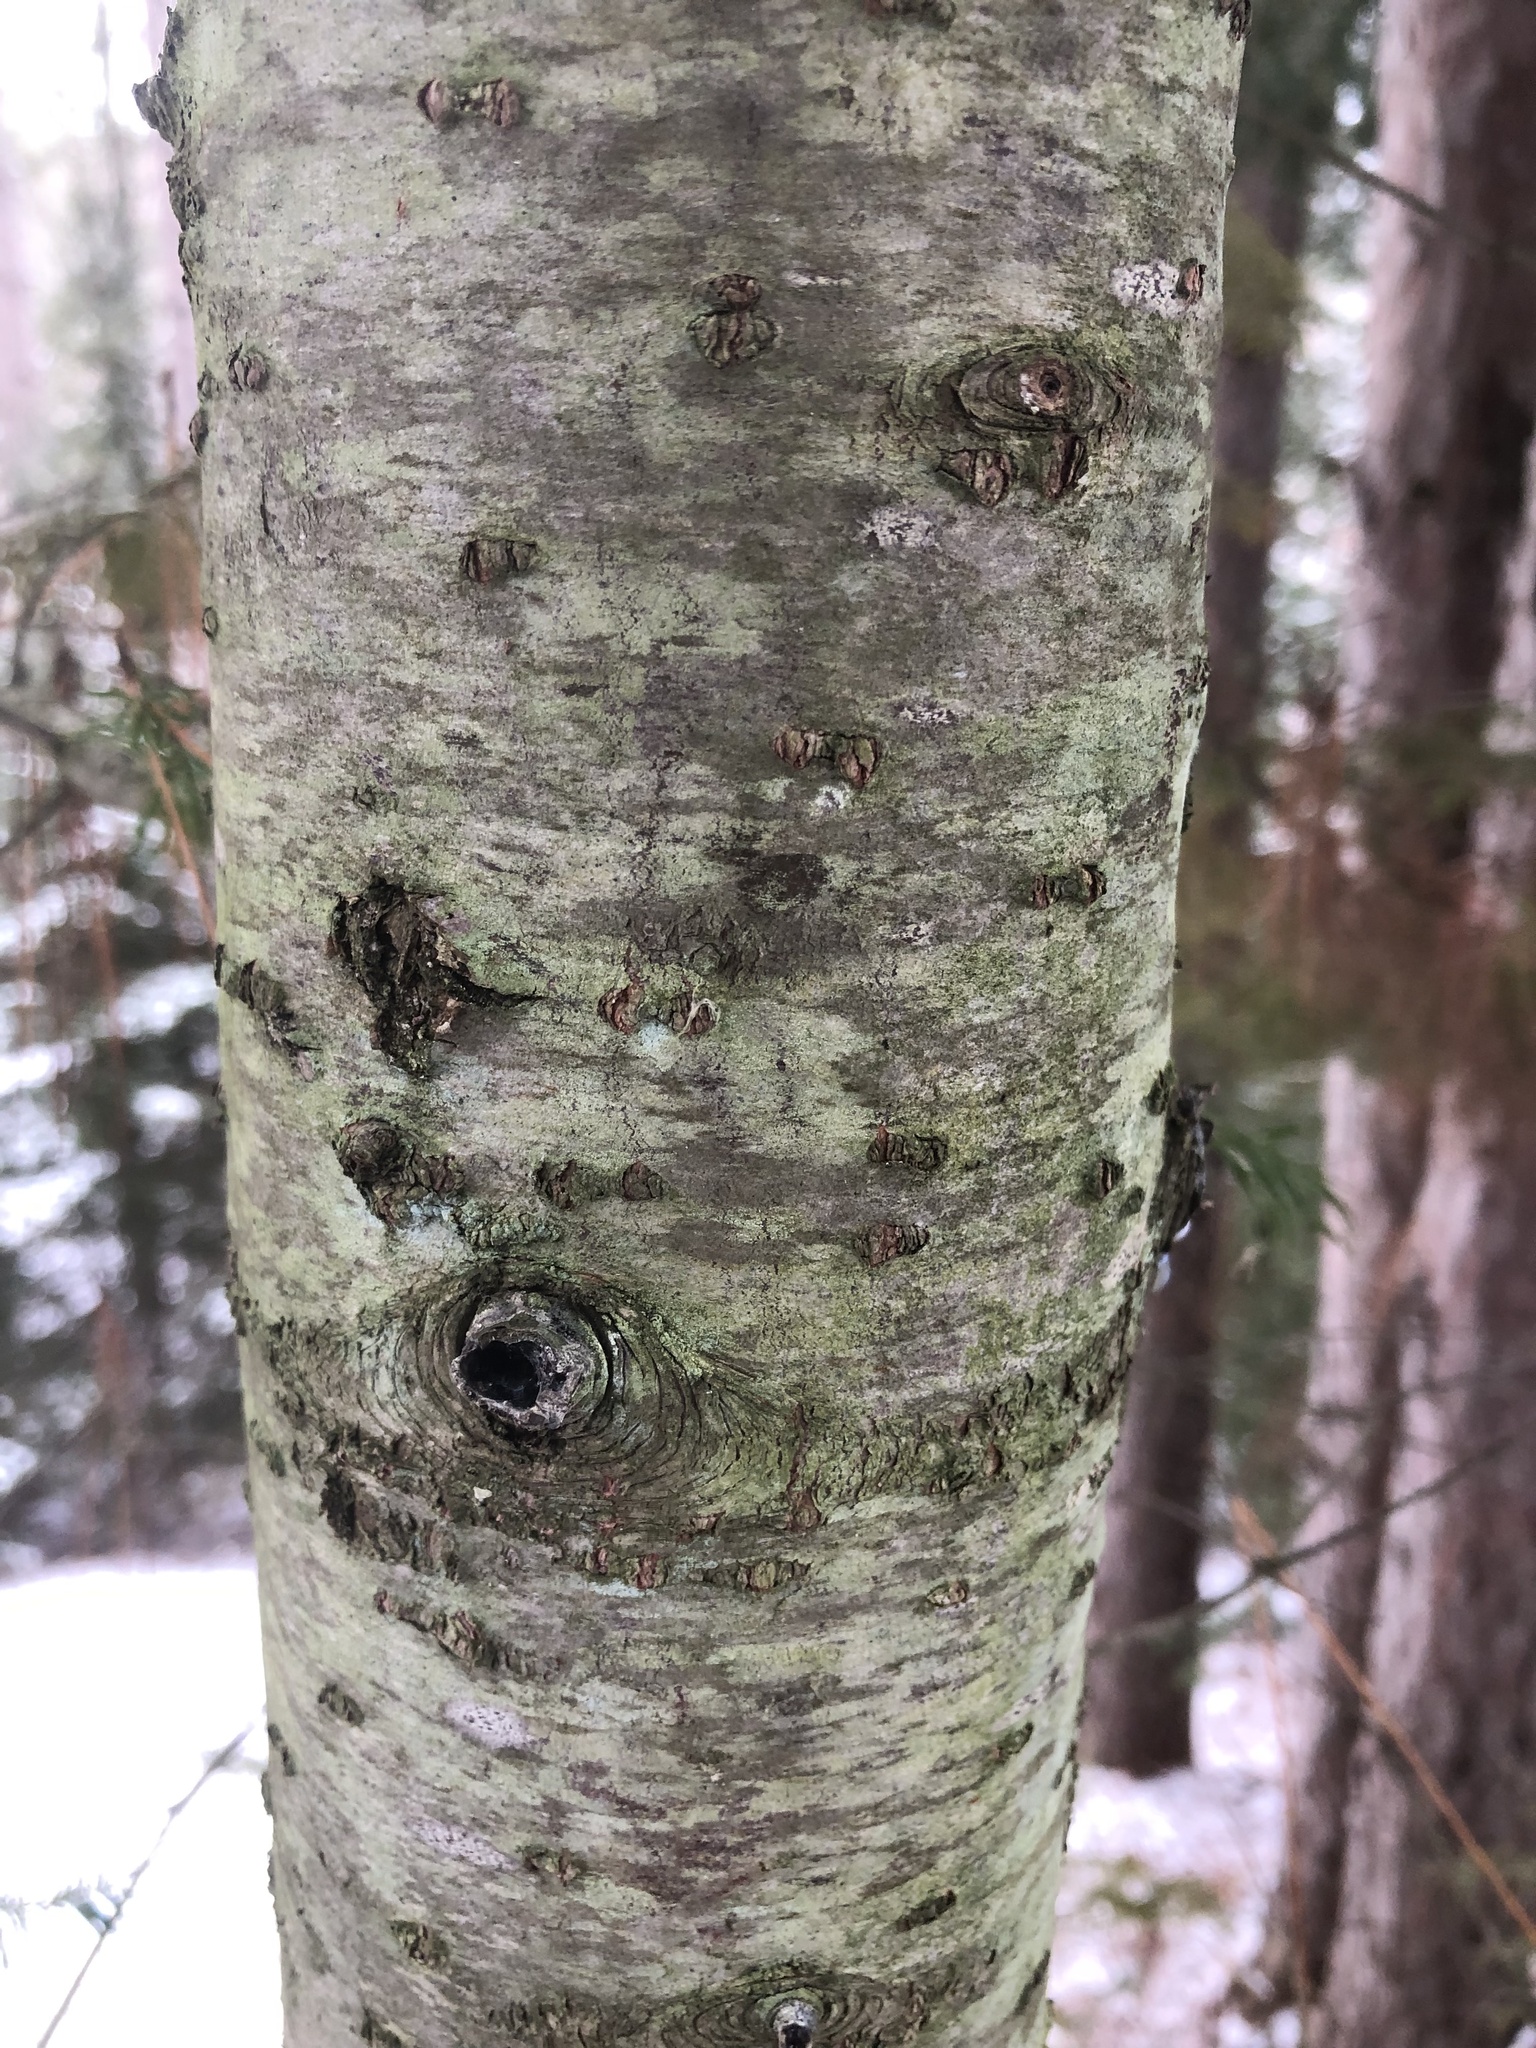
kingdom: Plantae
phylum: Tracheophyta
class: Magnoliopsida
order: Fagales
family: Betulaceae
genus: Betula
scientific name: Betula papyrifera
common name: Paper birch
